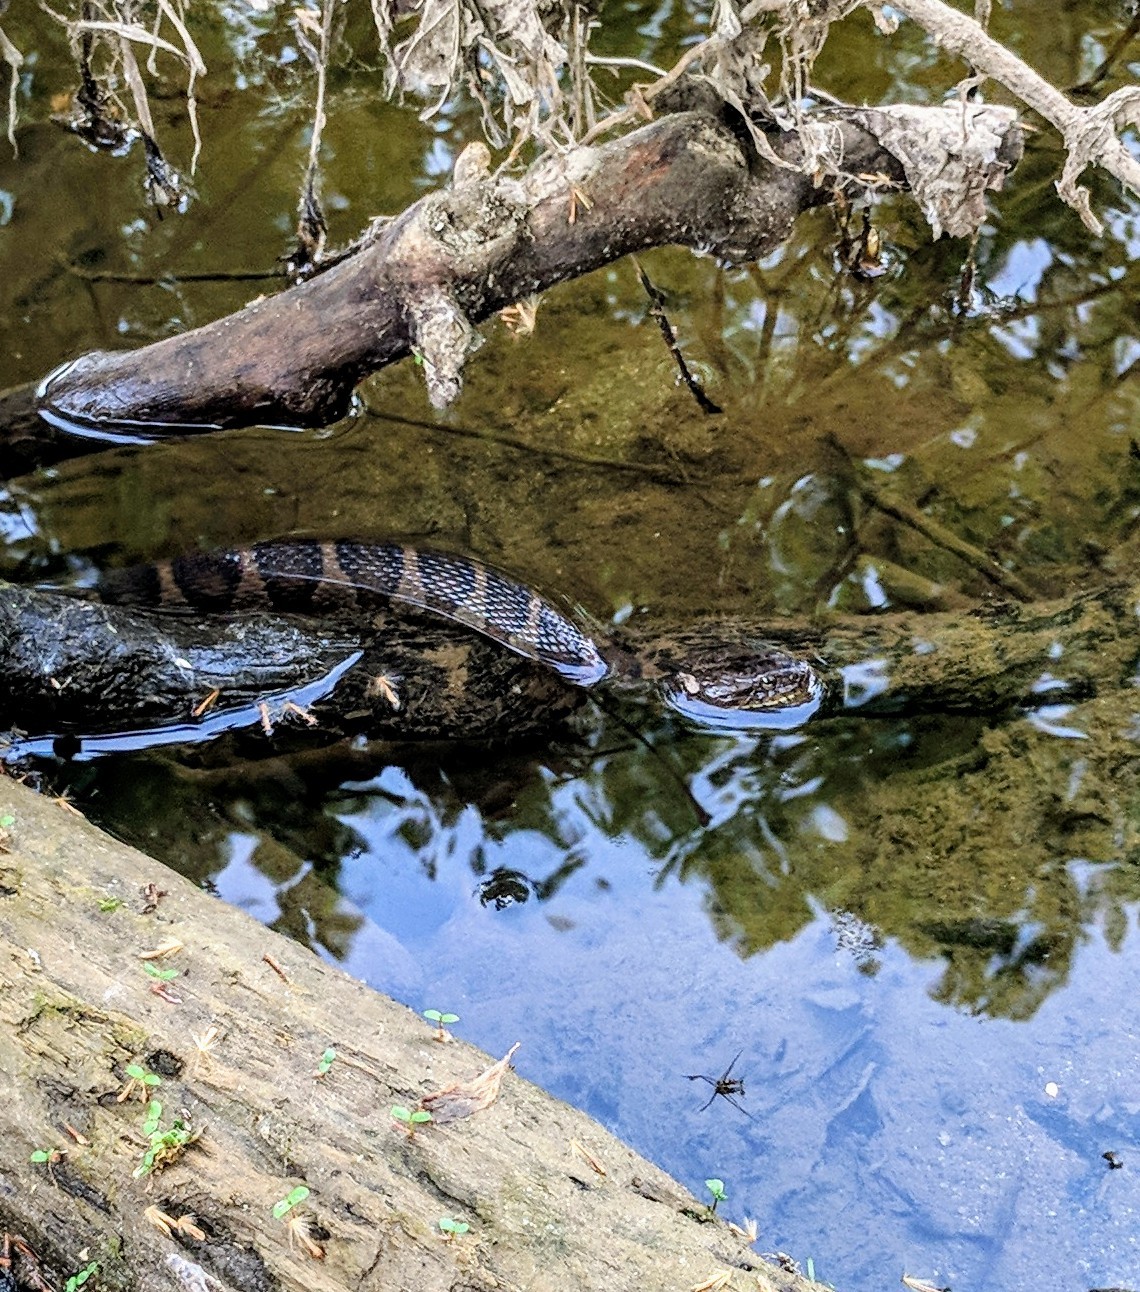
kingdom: Animalia
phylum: Chordata
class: Squamata
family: Colubridae
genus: Nerodia
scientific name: Nerodia sipedon
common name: Northern water snake
